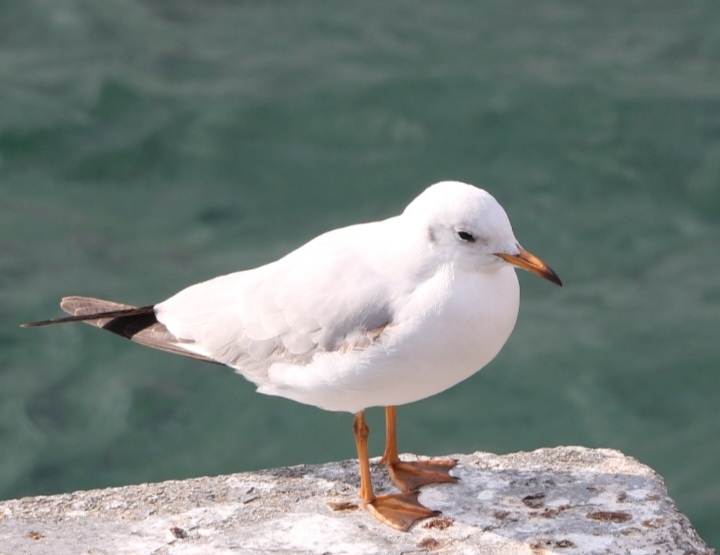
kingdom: Animalia
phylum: Chordata
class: Aves
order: Charadriiformes
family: Laridae
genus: Chroicocephalus
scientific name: Chroicocephalus ridibundus
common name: Black-headed gull
